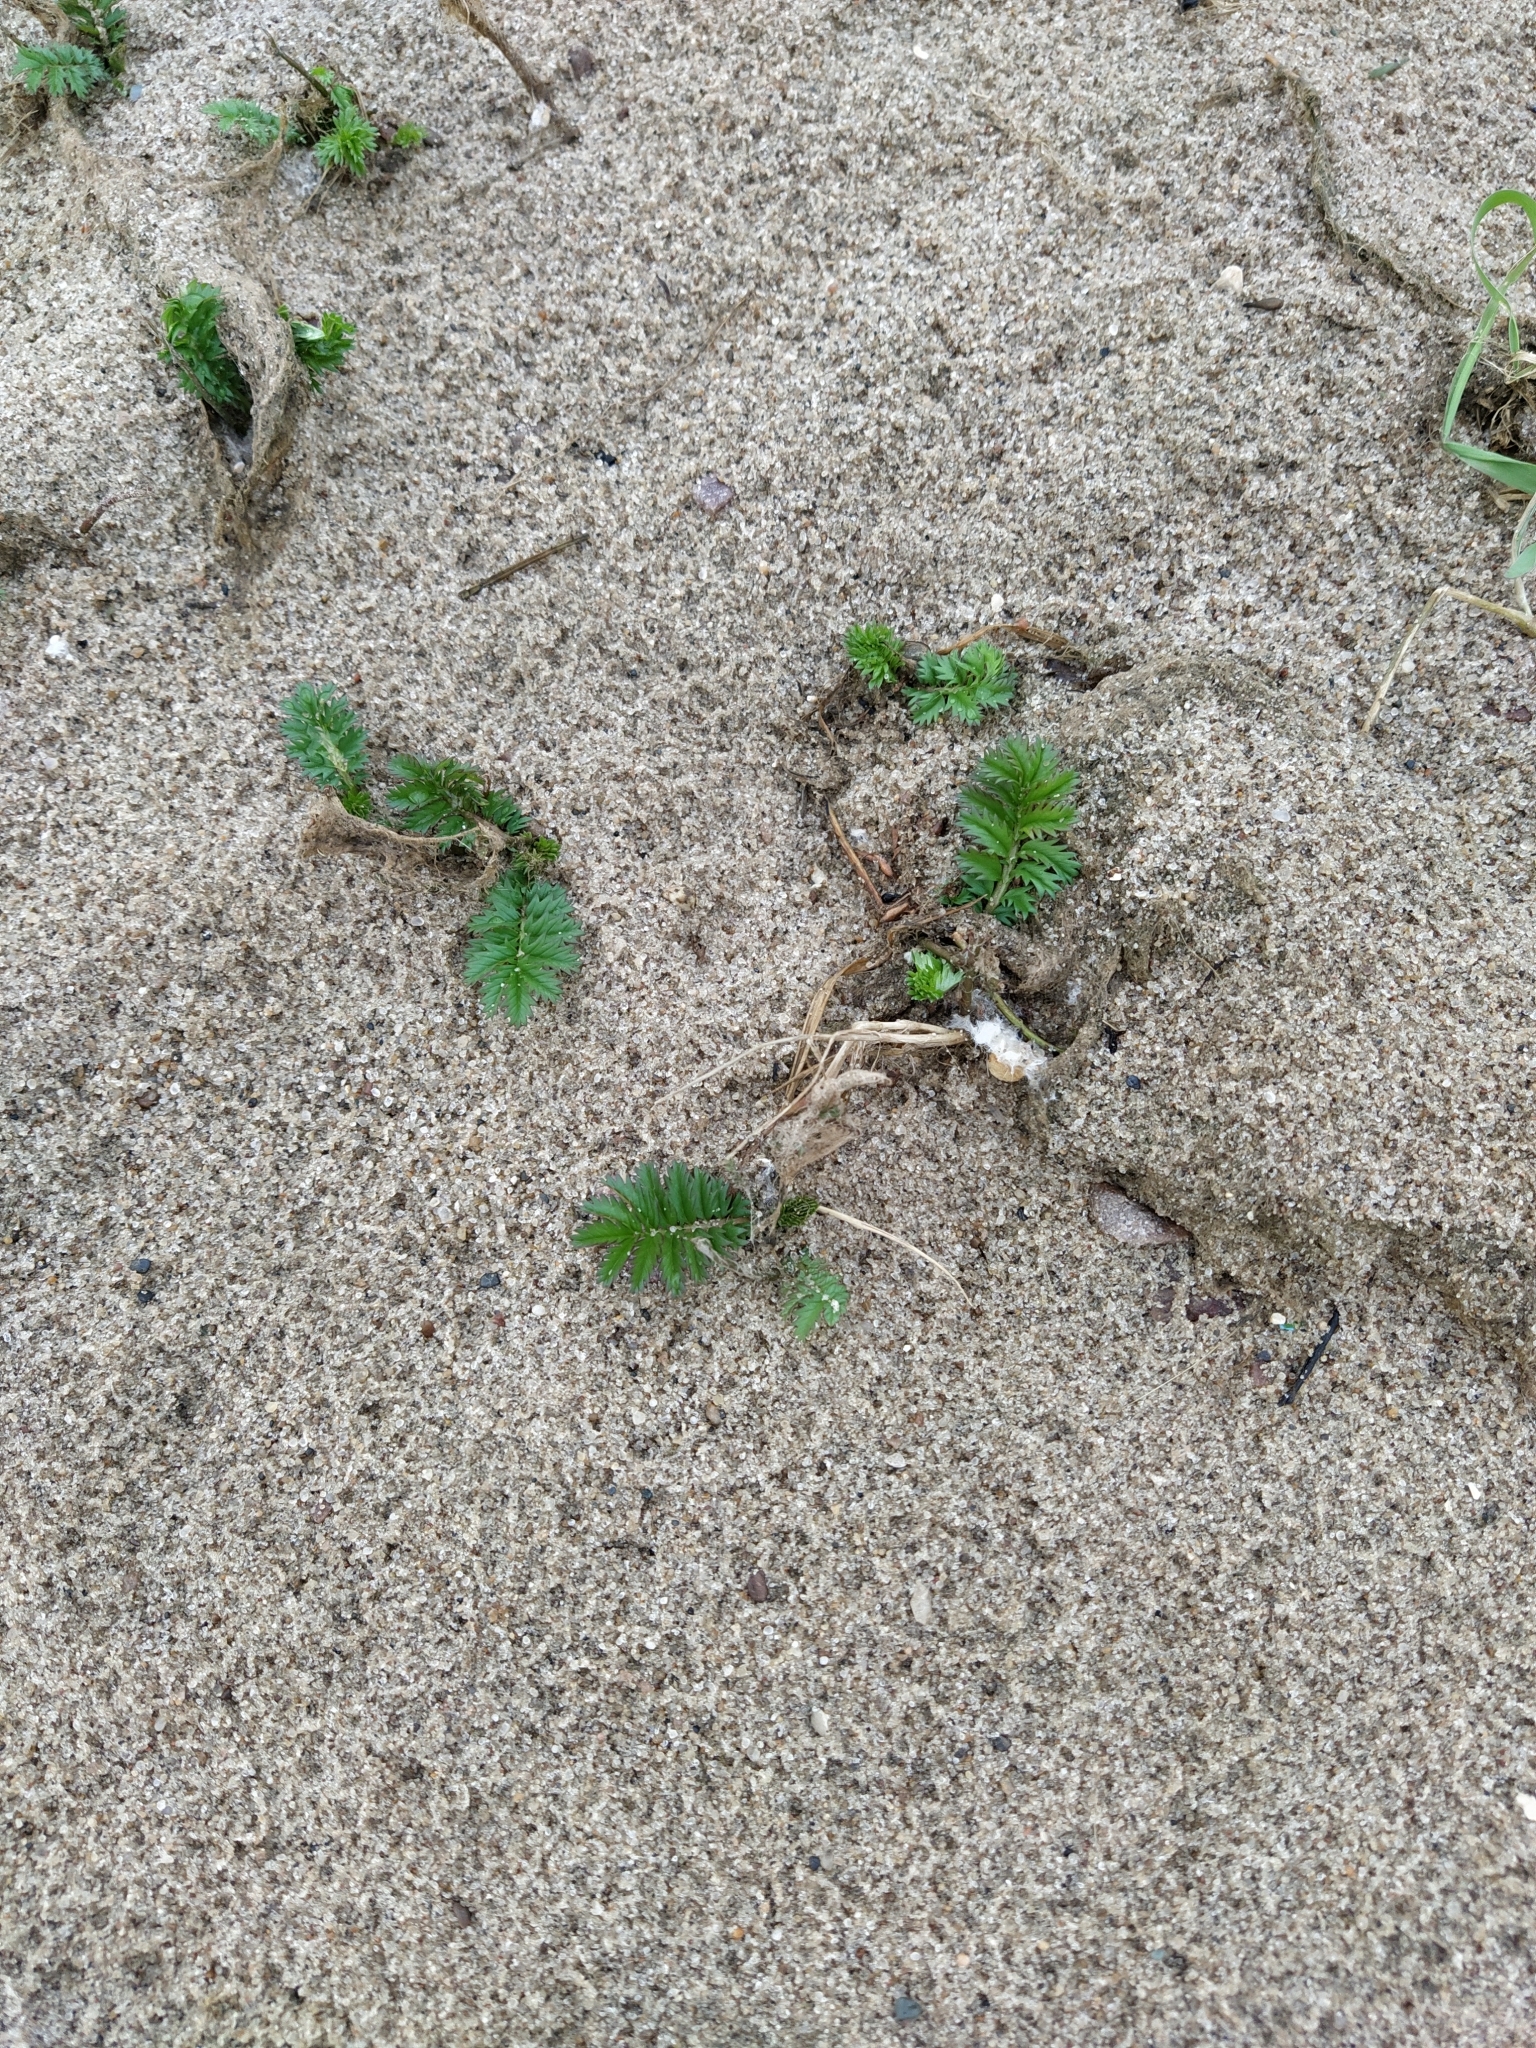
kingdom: Plantae
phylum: Tracheophyta
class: Magnoliopsida
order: Rosales
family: Rosaceae
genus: Argentina
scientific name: Argentina anserina
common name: Common silverweed
